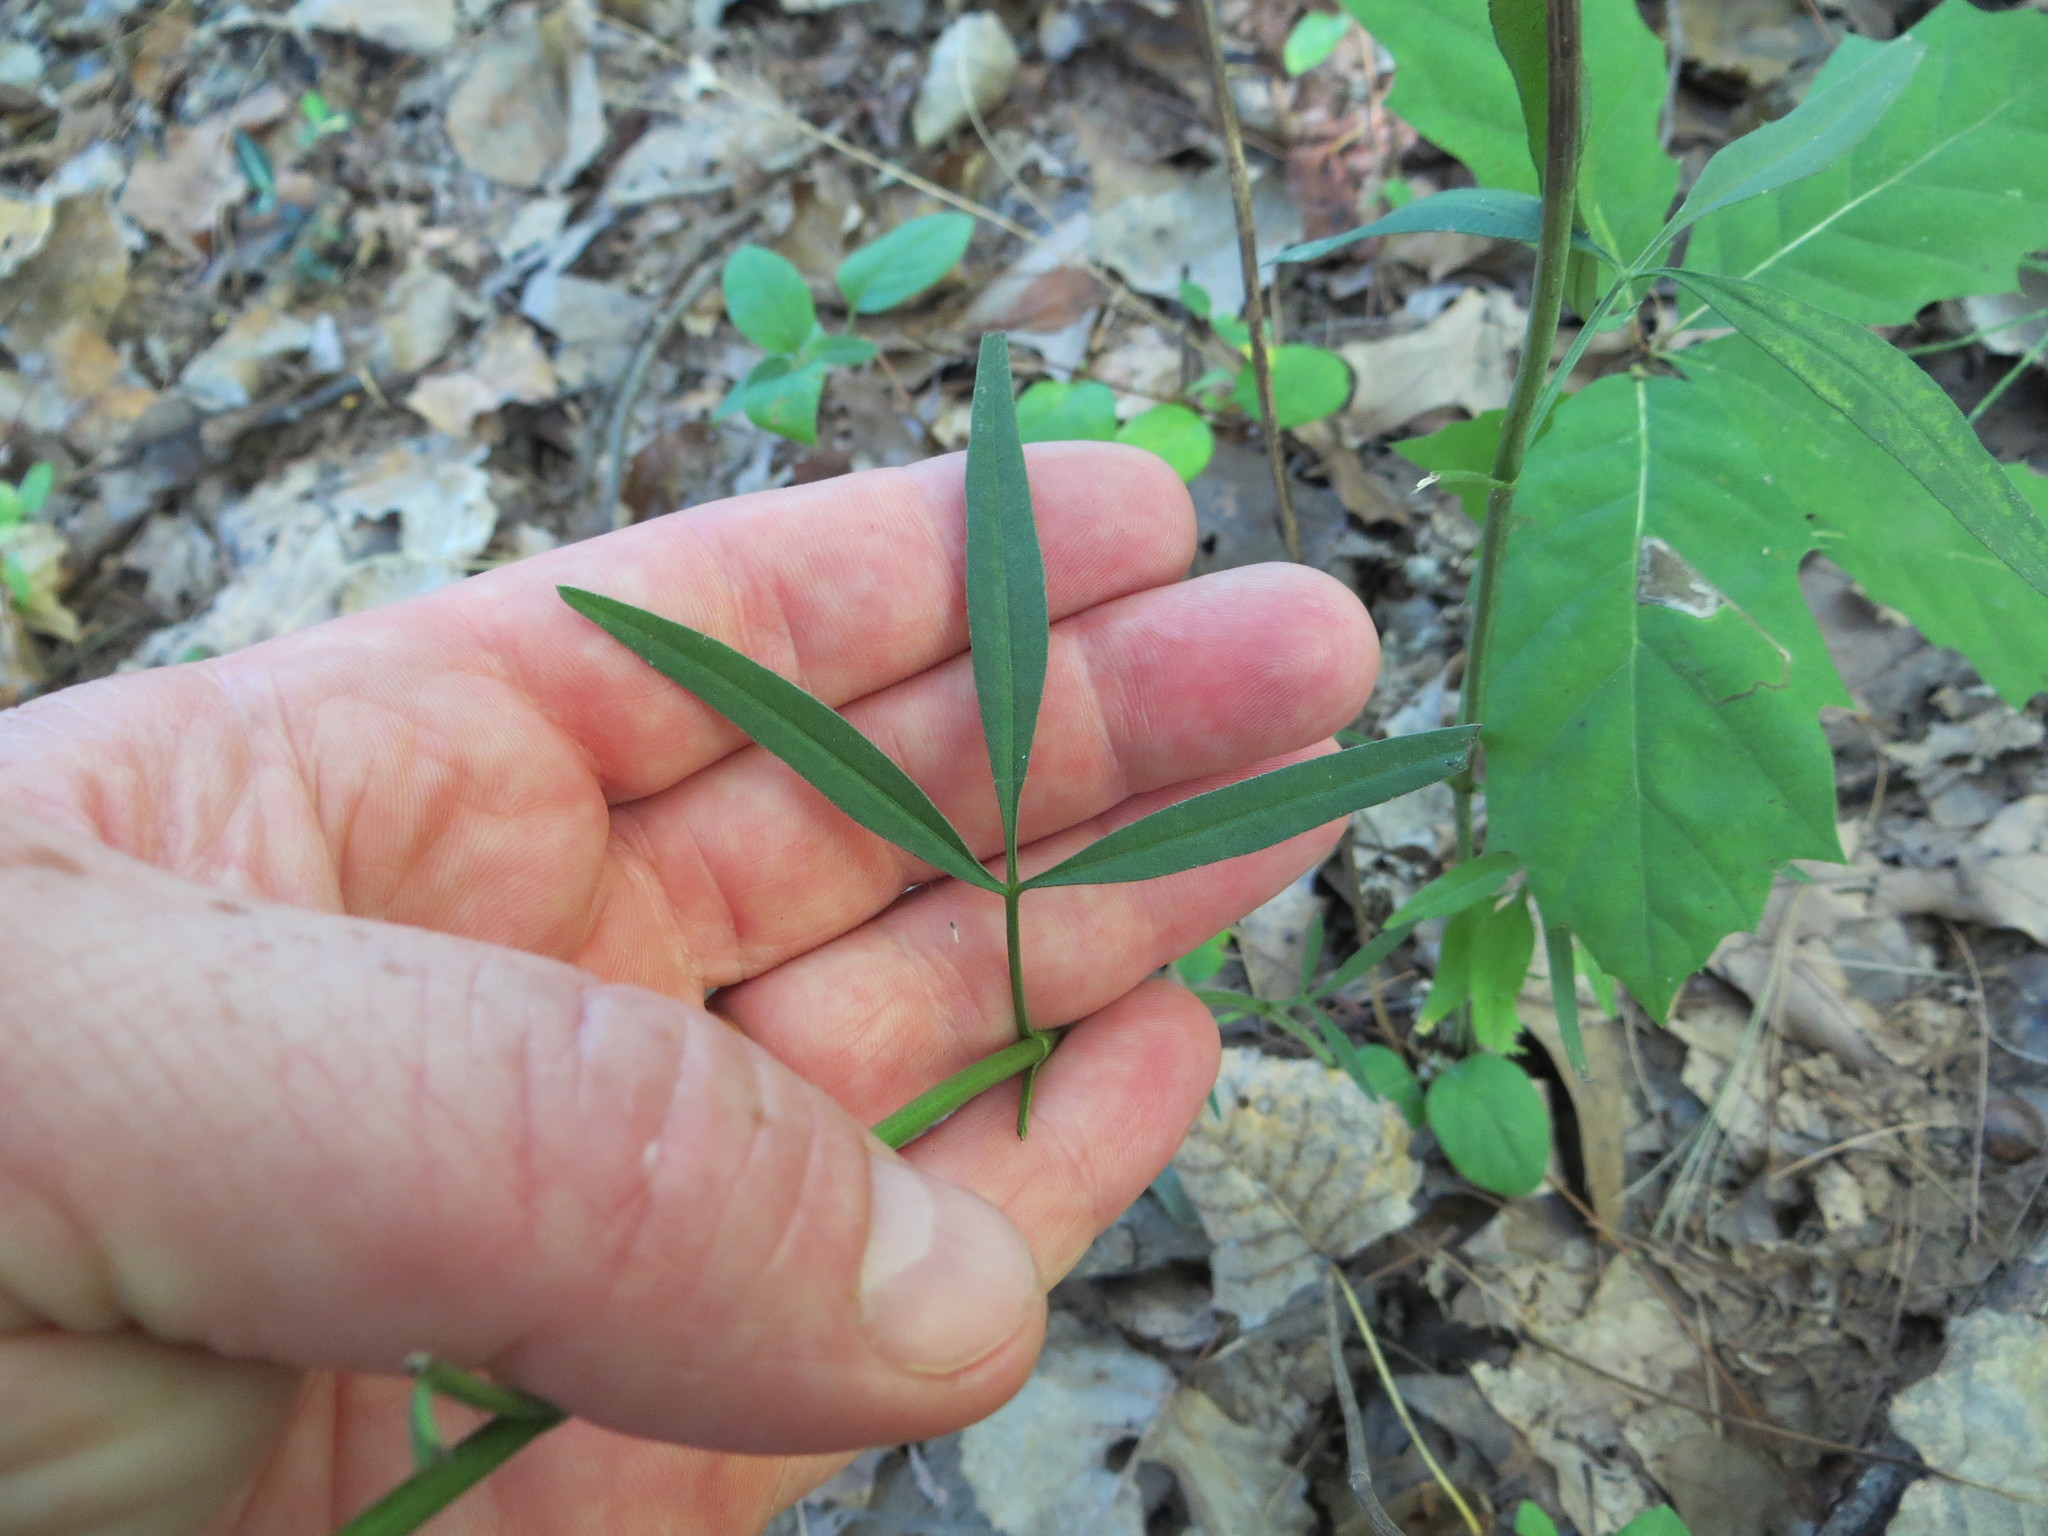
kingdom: Plantae
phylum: Tracheophyta
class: Magnoliopsida
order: Asterales
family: Asteraceae
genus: Coreopsis
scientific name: Coreopsis tripteris
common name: Tall coreopsis
